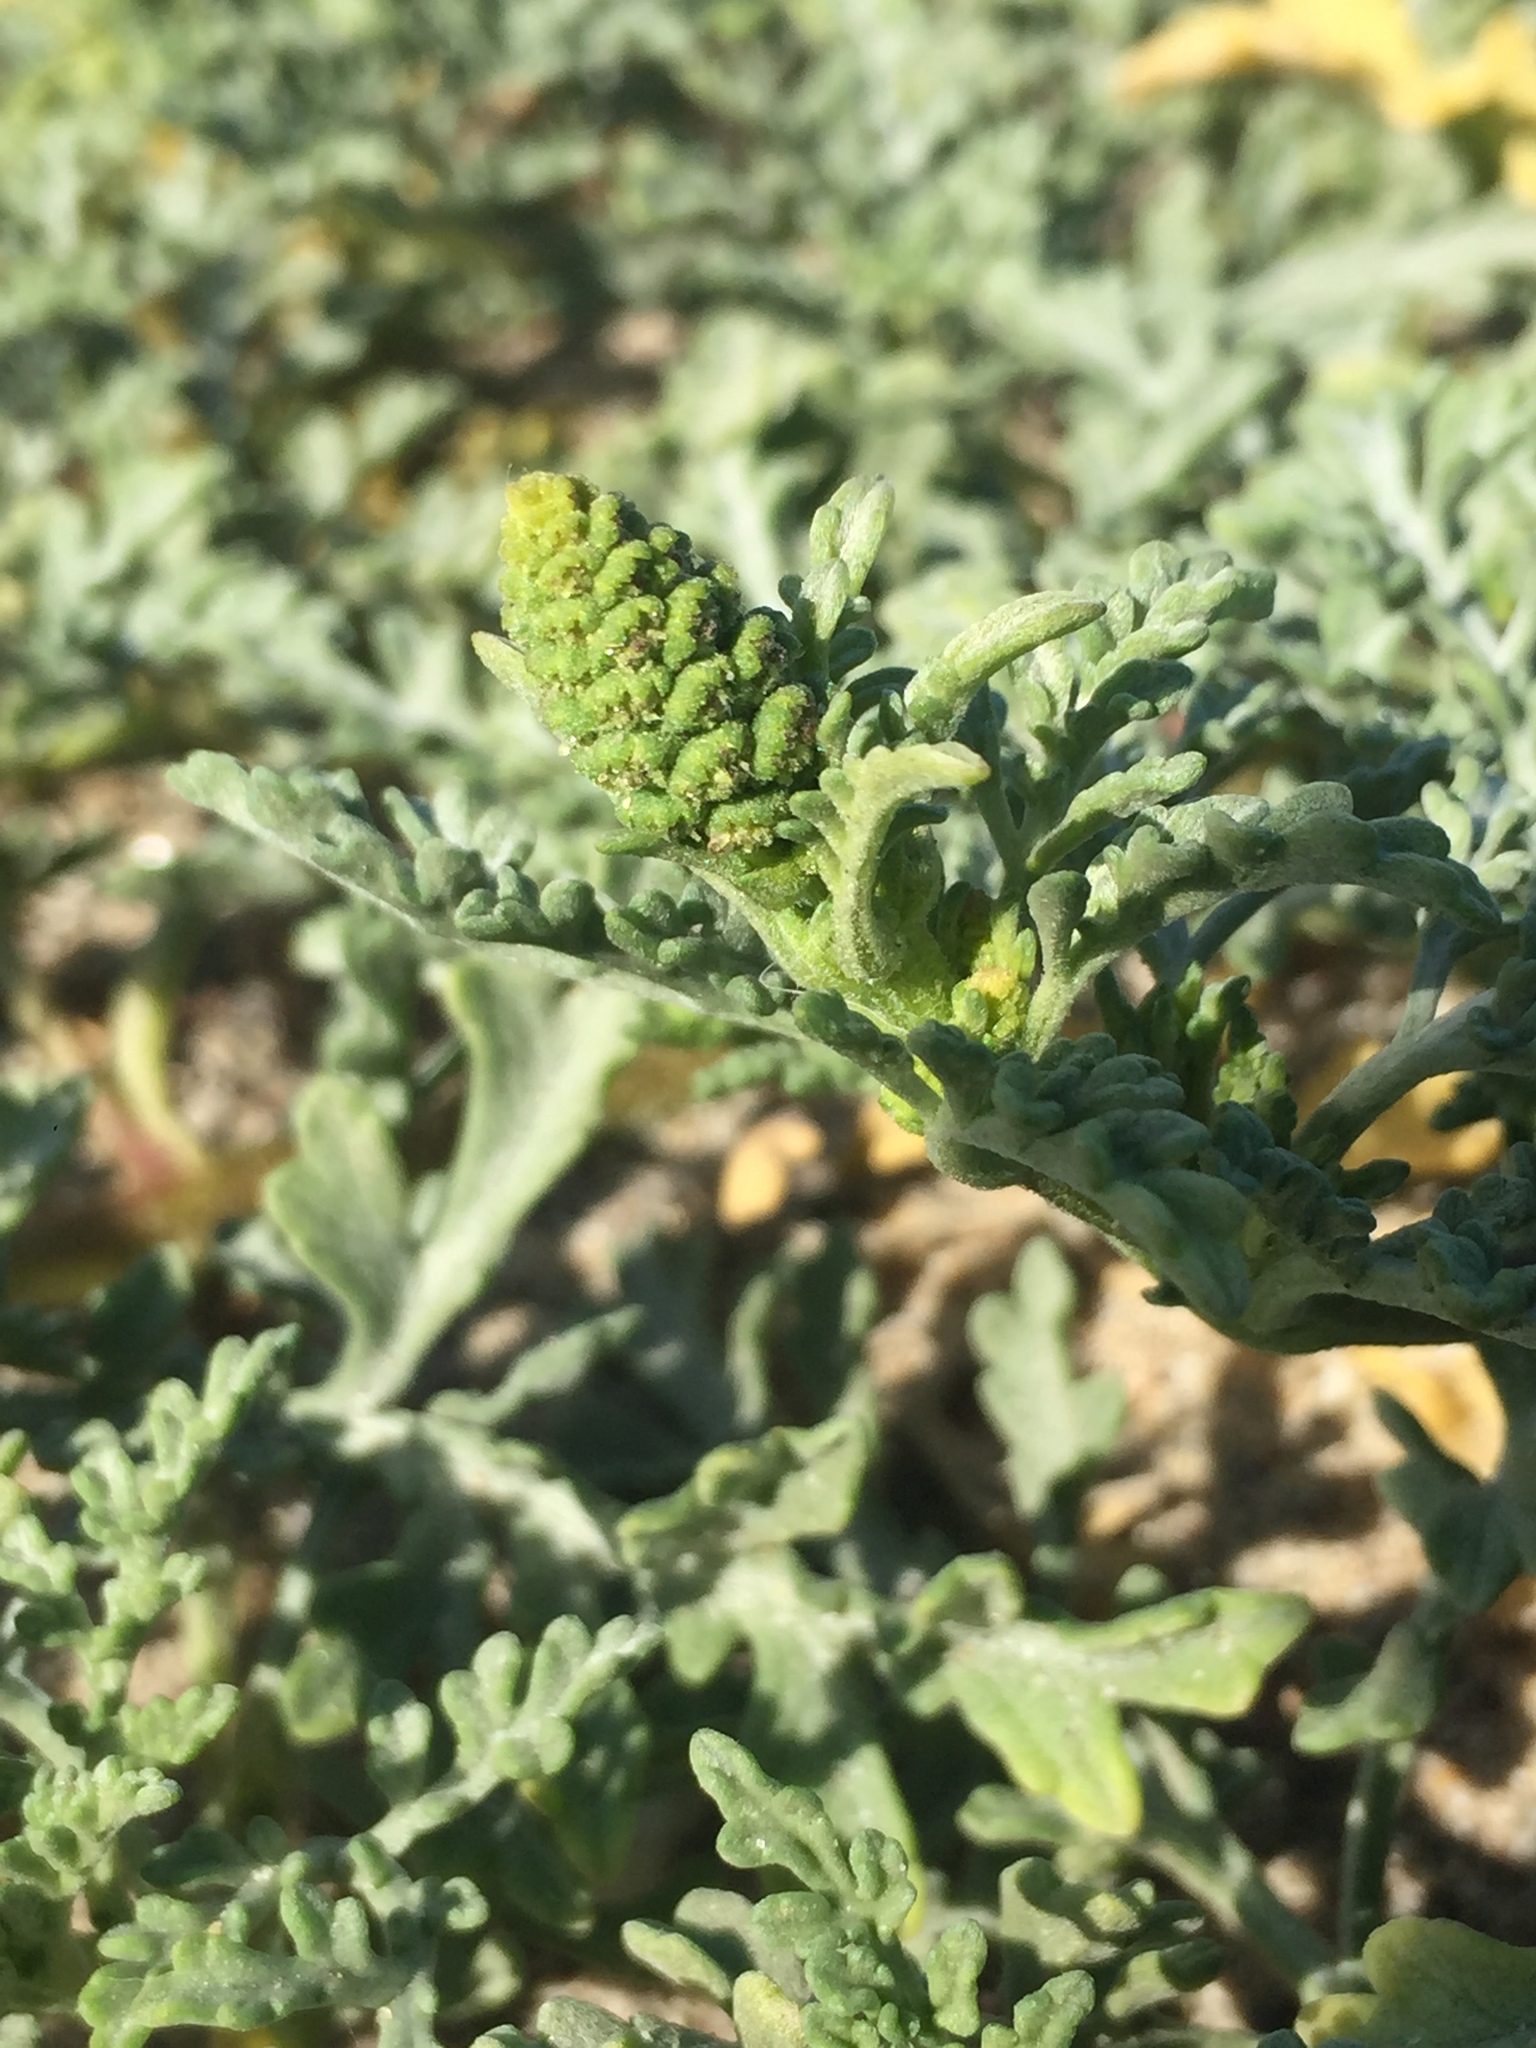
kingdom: Plantae
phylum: Tracheophyta
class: Magnoliopsida
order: Asterales
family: Asteraceae
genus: Ambrosia
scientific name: Ambrosia chamissonis
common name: Beachbur
